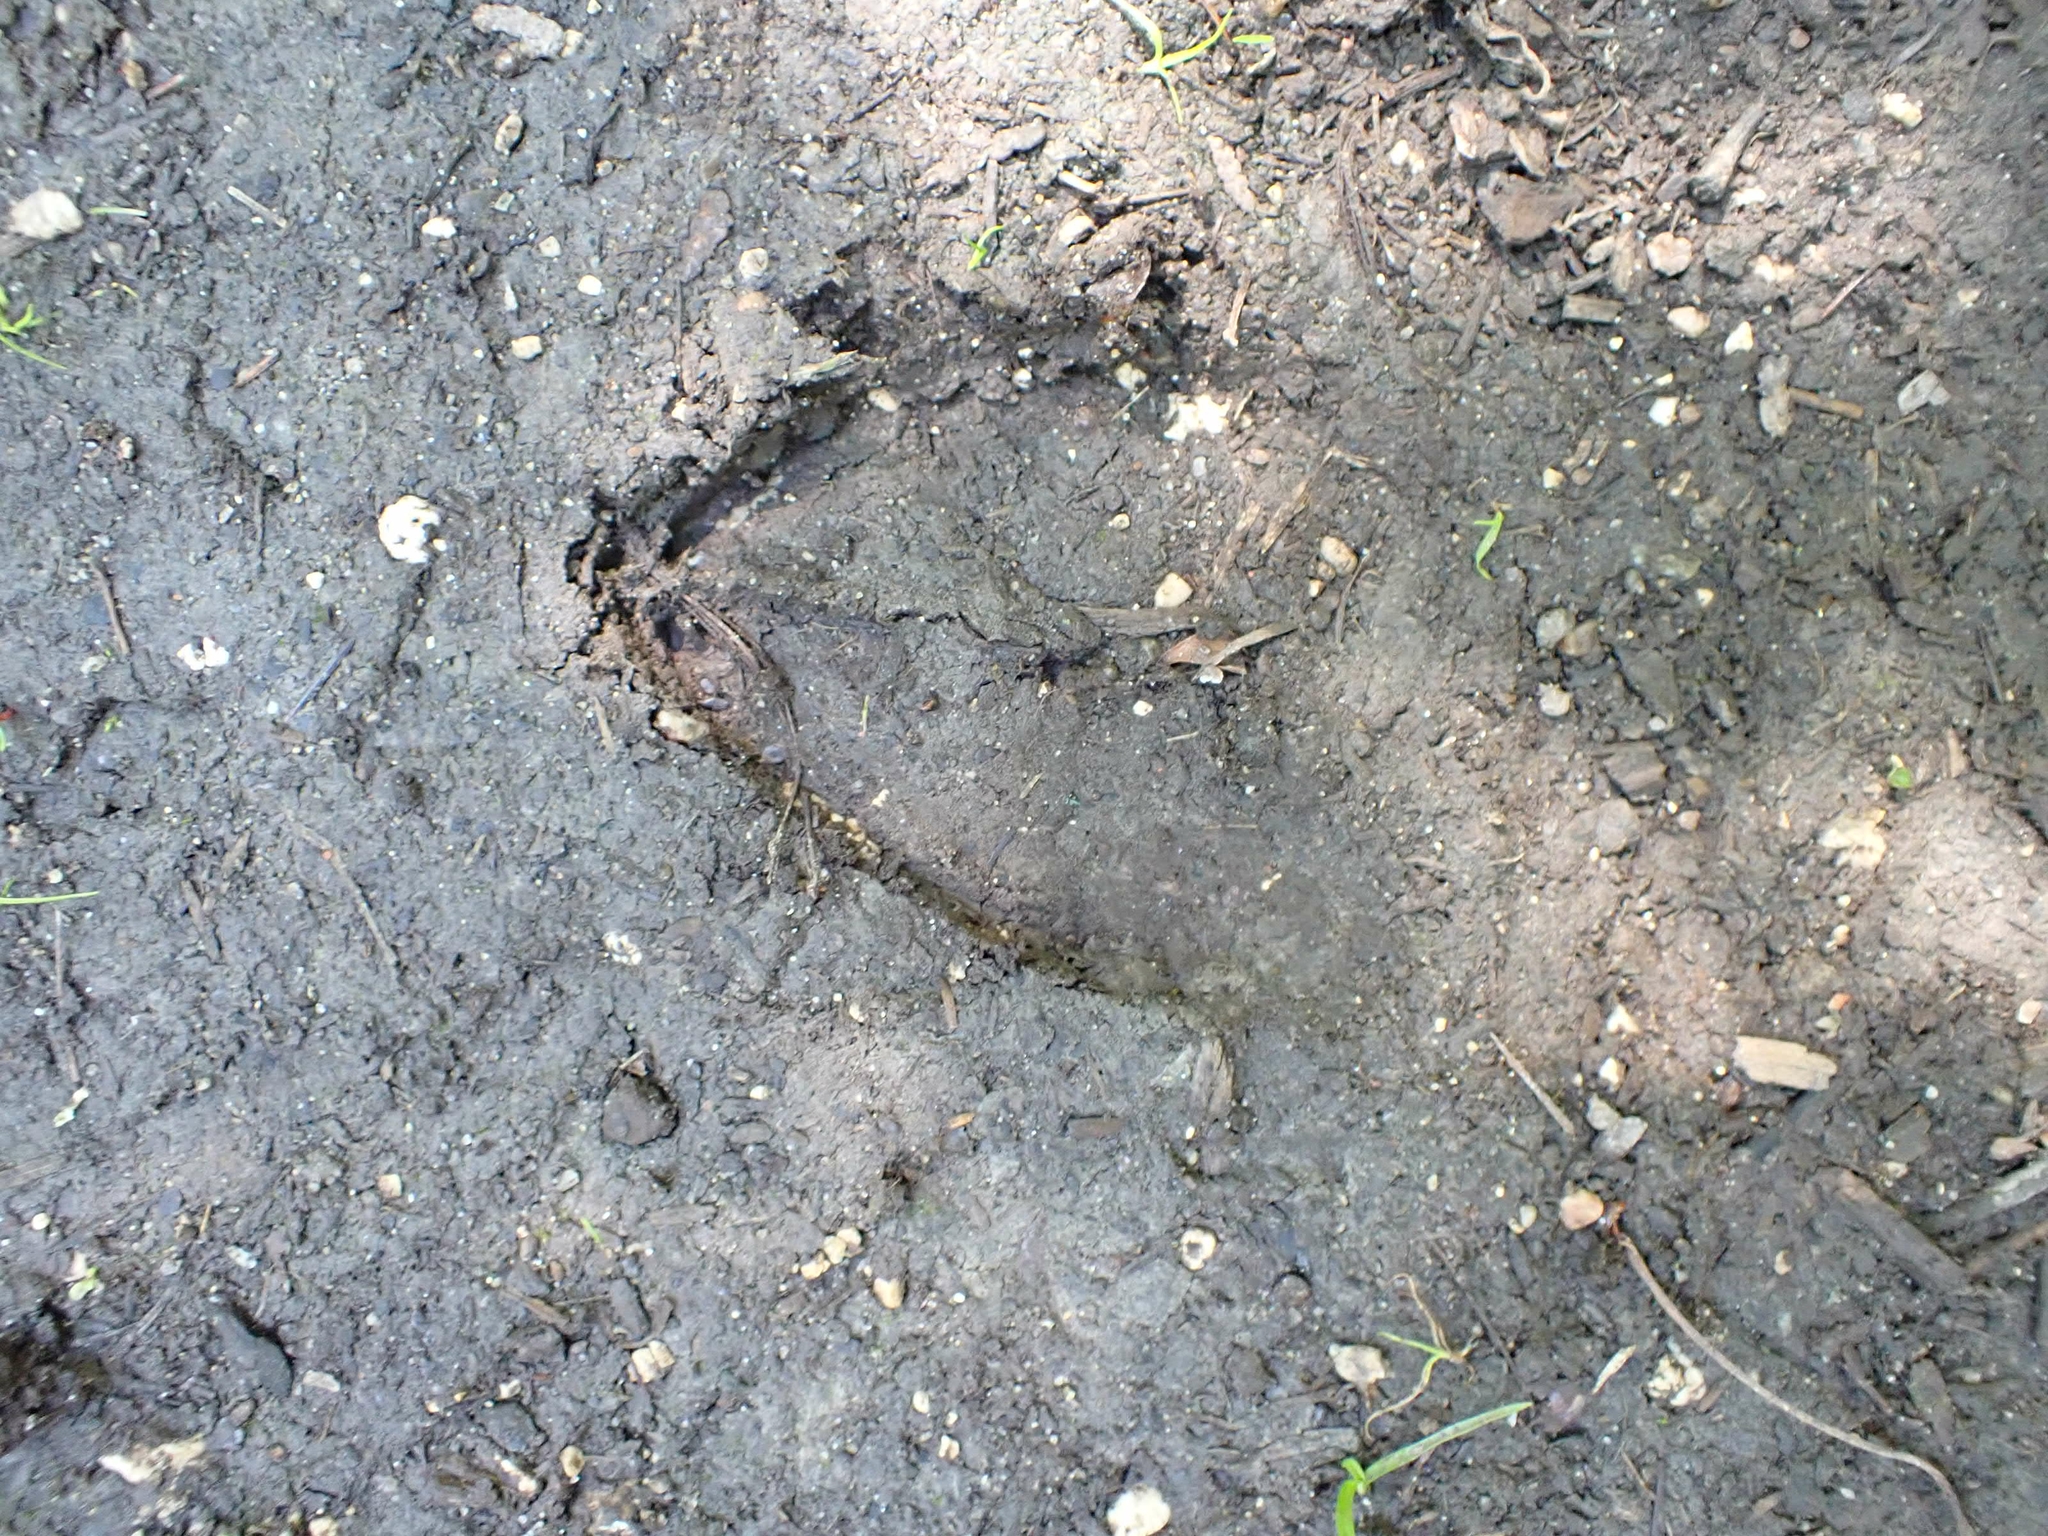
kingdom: Animalia
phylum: Chordata
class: Mammalia
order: Artiodactyla
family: Cervidae
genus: Odocoileus
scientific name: Odocoileus virginianus
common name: White-tailed deer
